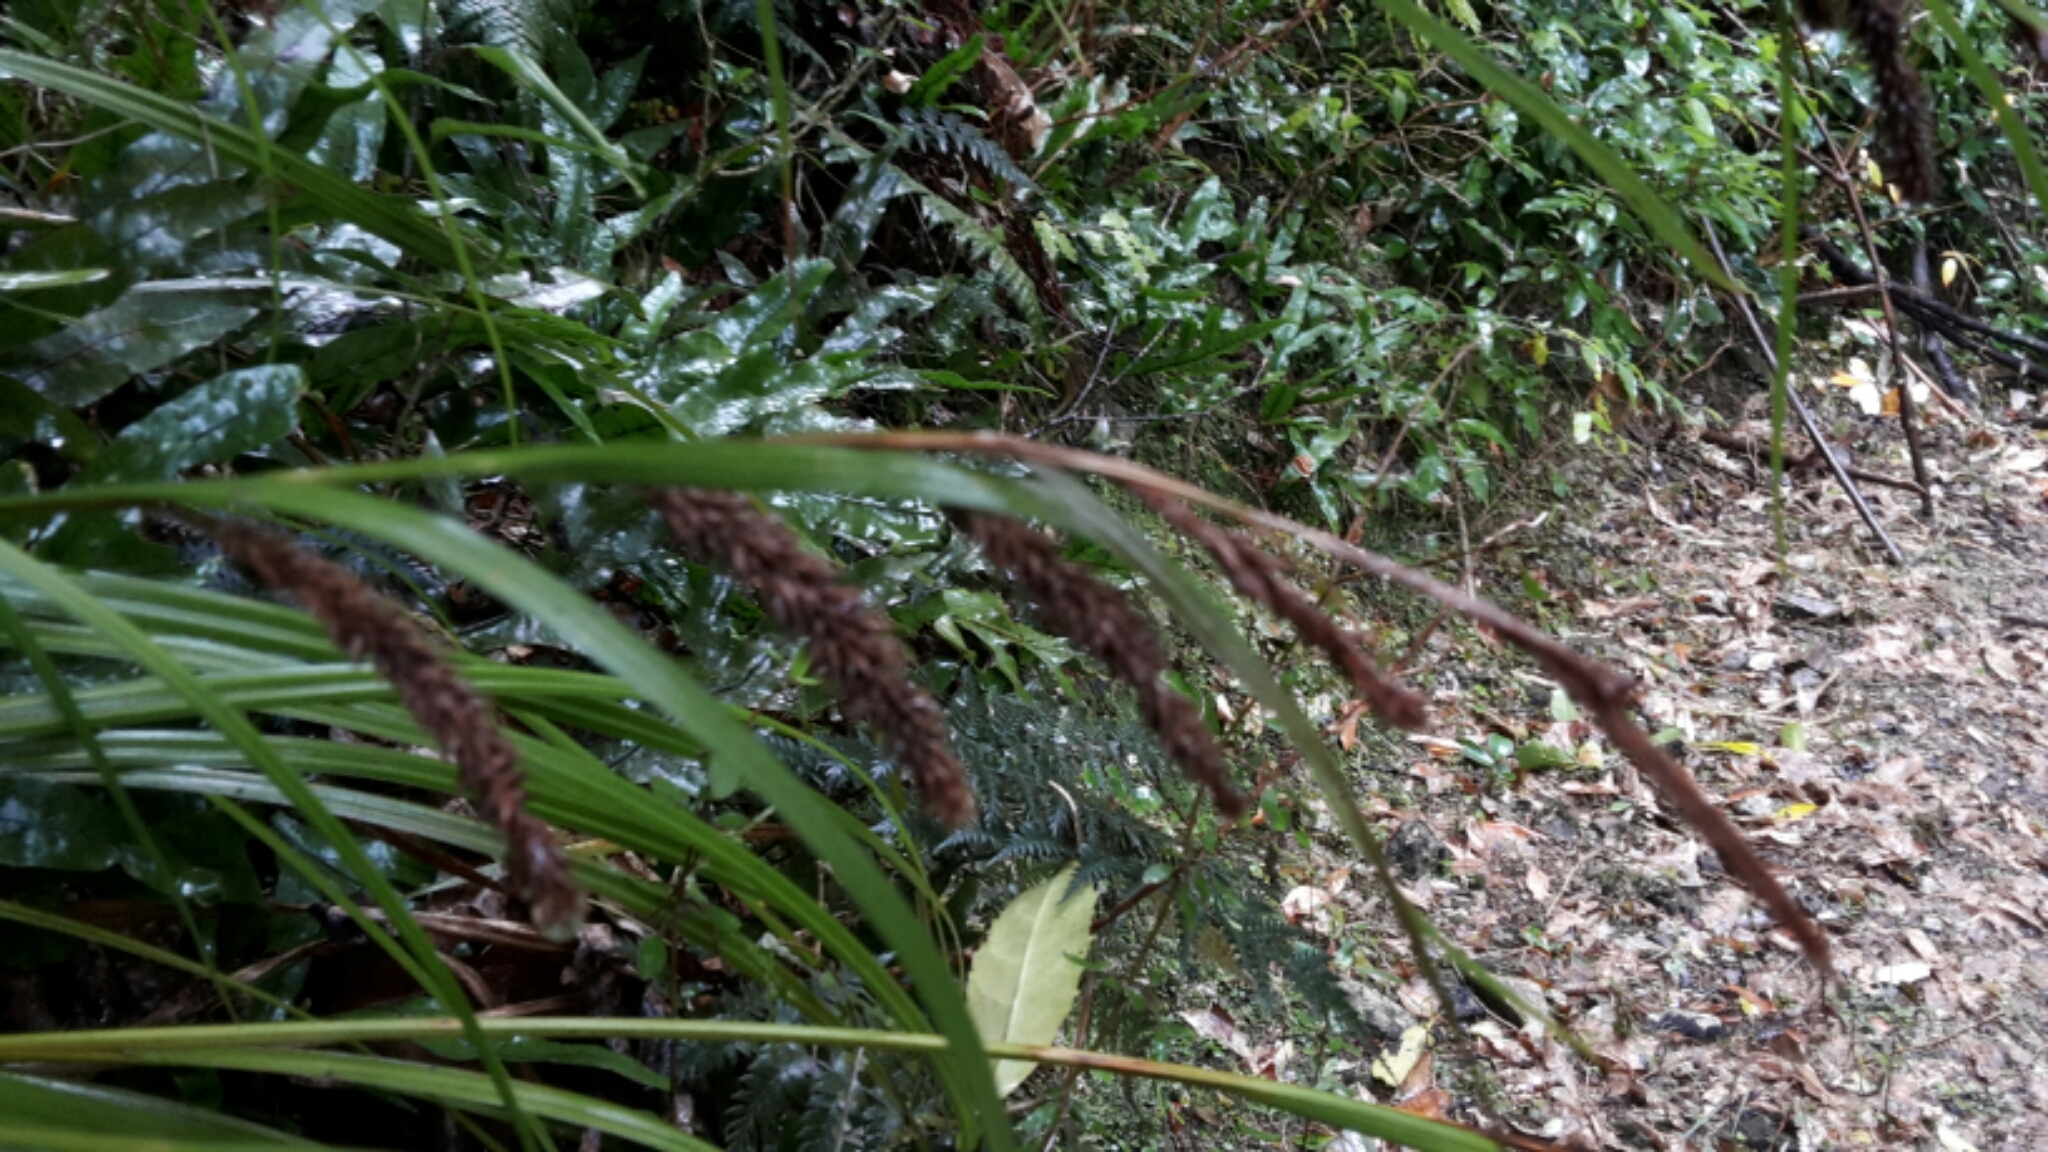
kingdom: Plantae
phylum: Tracheophyta
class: Liliopsida
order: Poales
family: Cyperaceae
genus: Carex
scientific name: Carex forsteri
